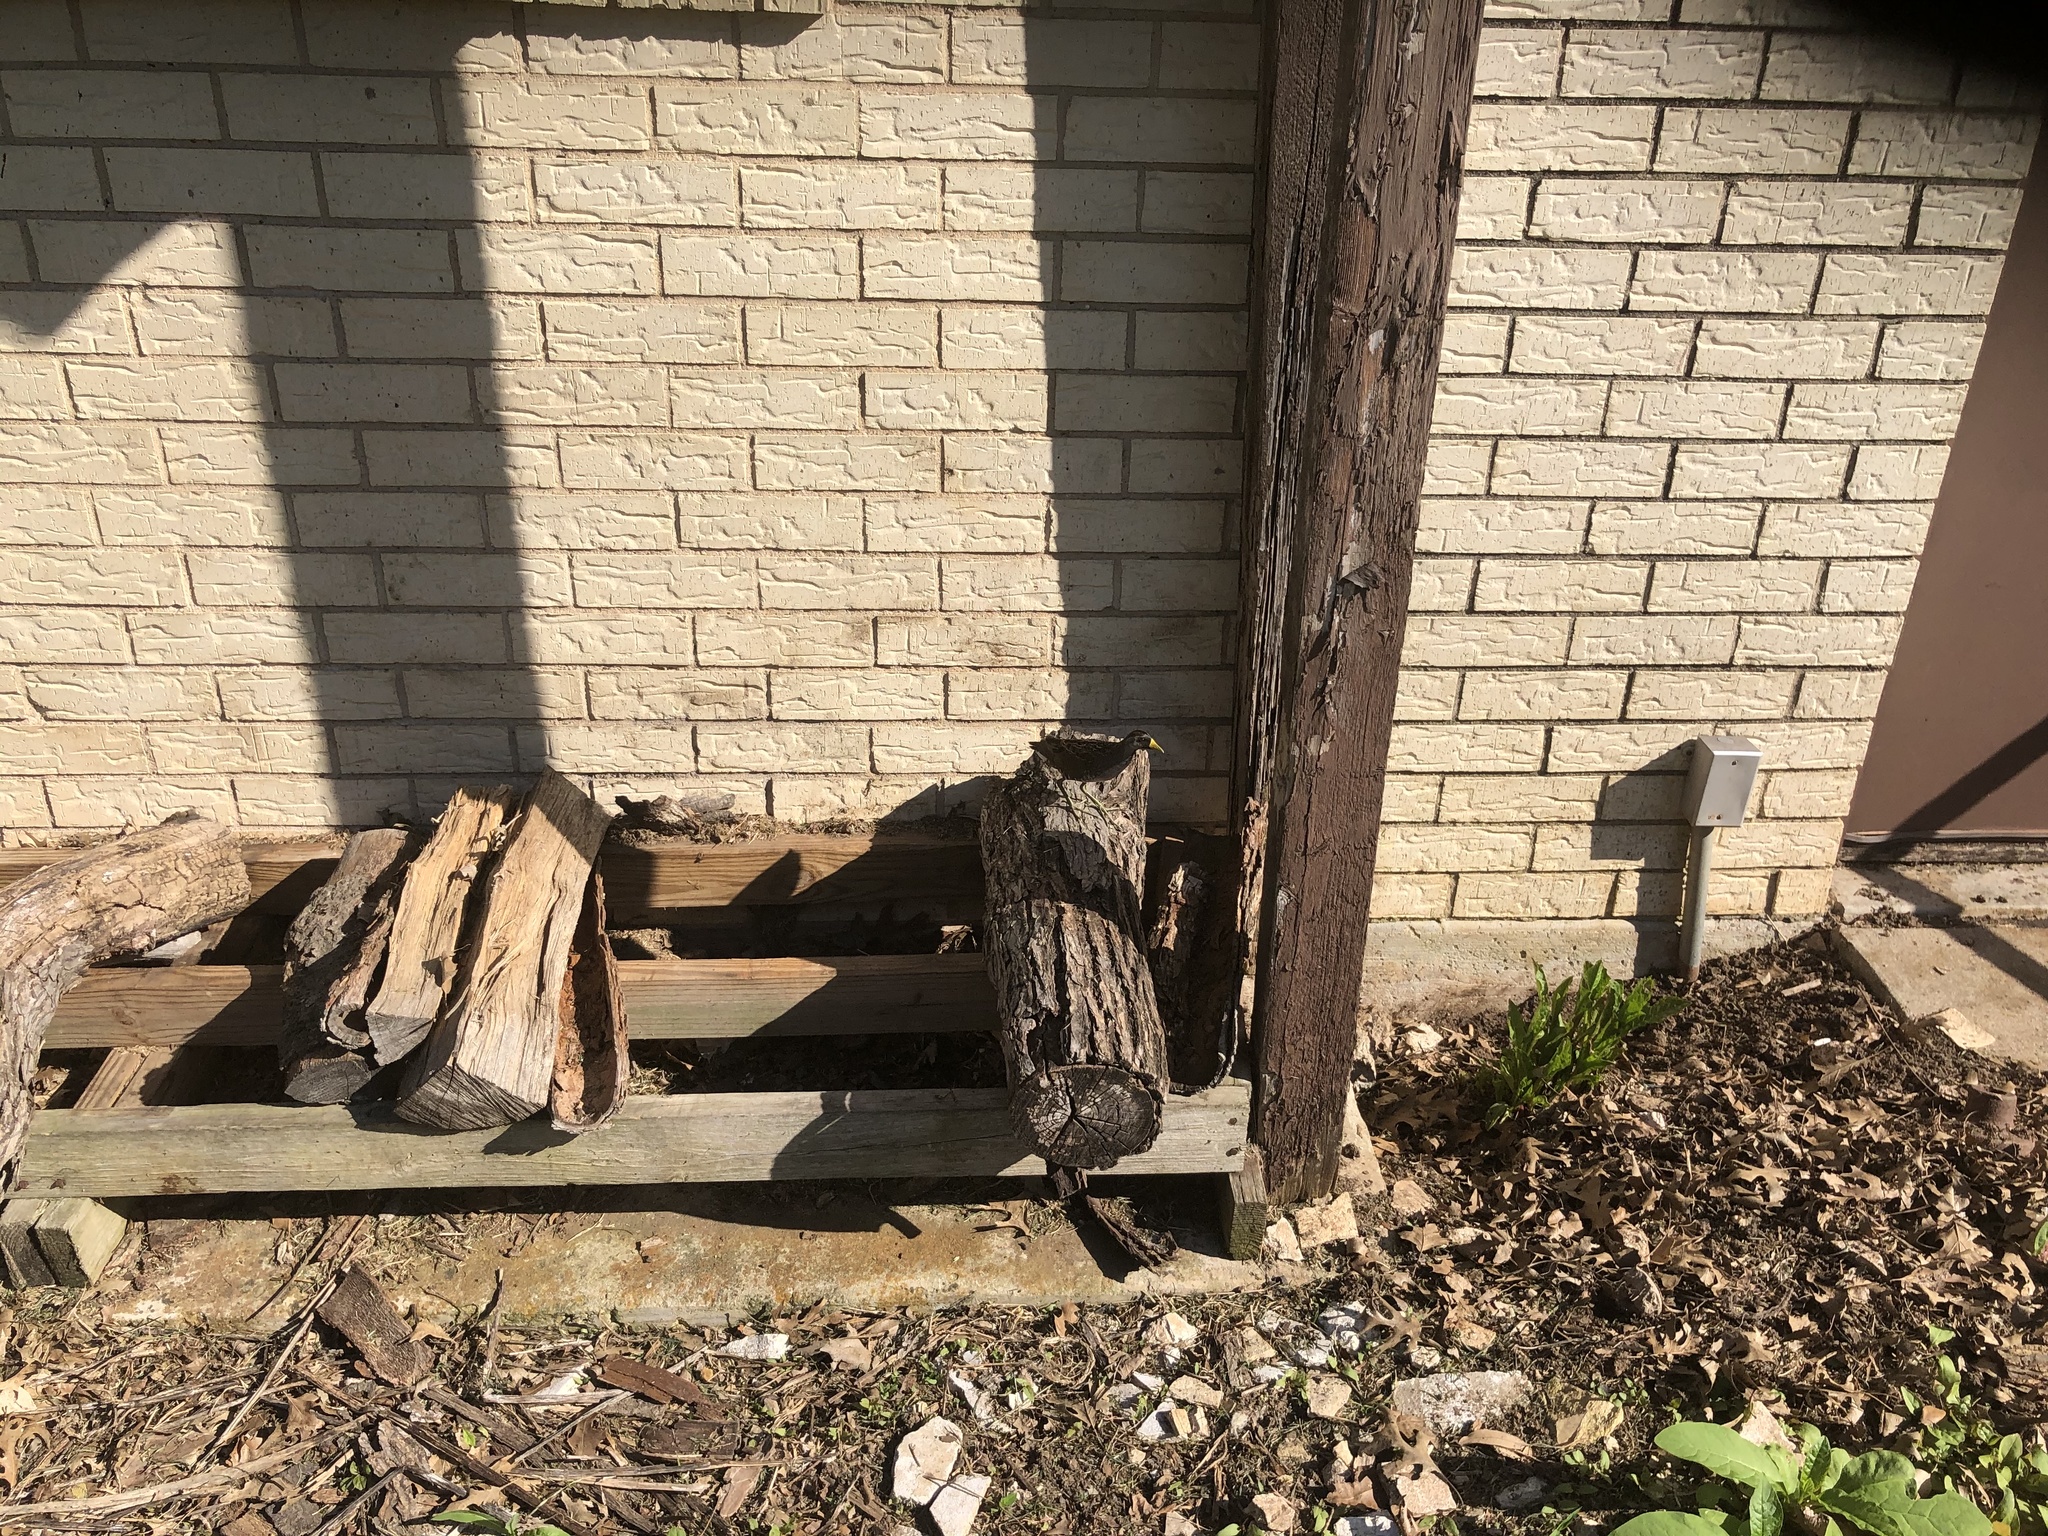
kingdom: Animalia
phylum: Chordata
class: Aves
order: Gruiformes
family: Rallidae
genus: Porzana
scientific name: Porzana carolina
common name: Sora
